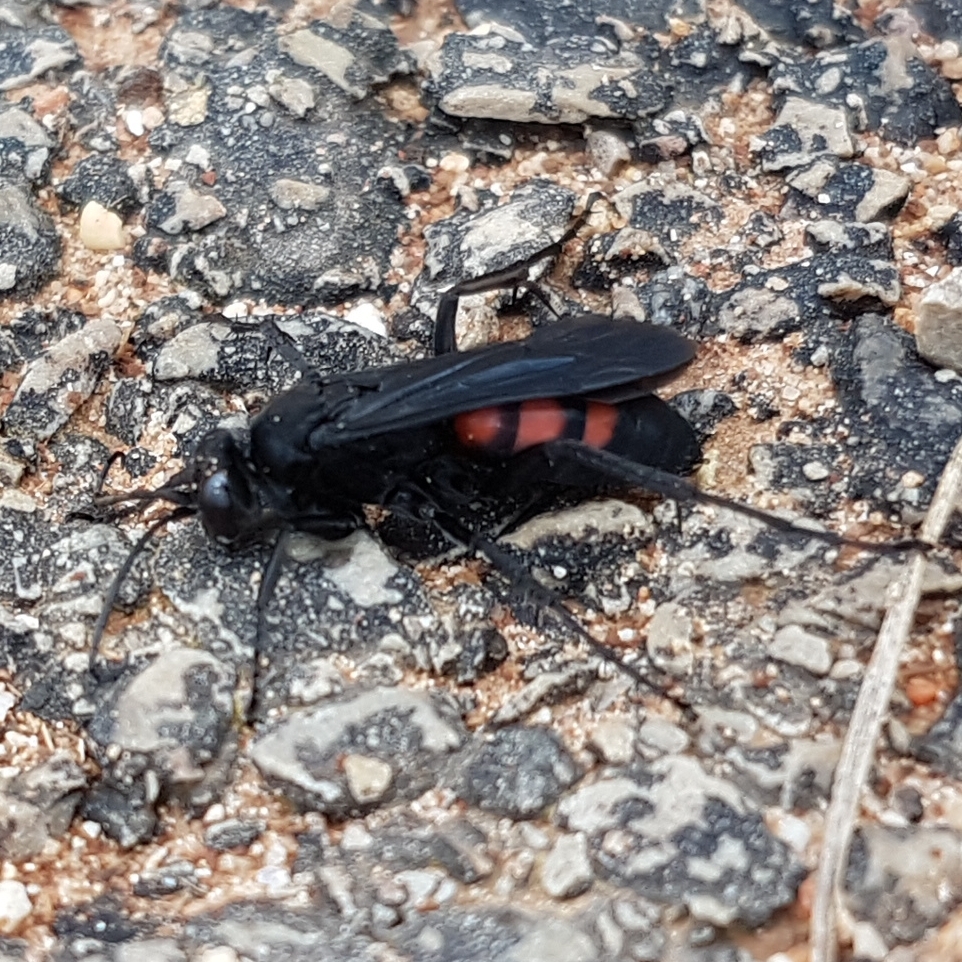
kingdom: Animalia
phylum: Arthropoda
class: Insecta
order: Hymenoptera
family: Pompilidae
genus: Anoplius
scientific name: Anoplius viaticus
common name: Black banded spider wasp
